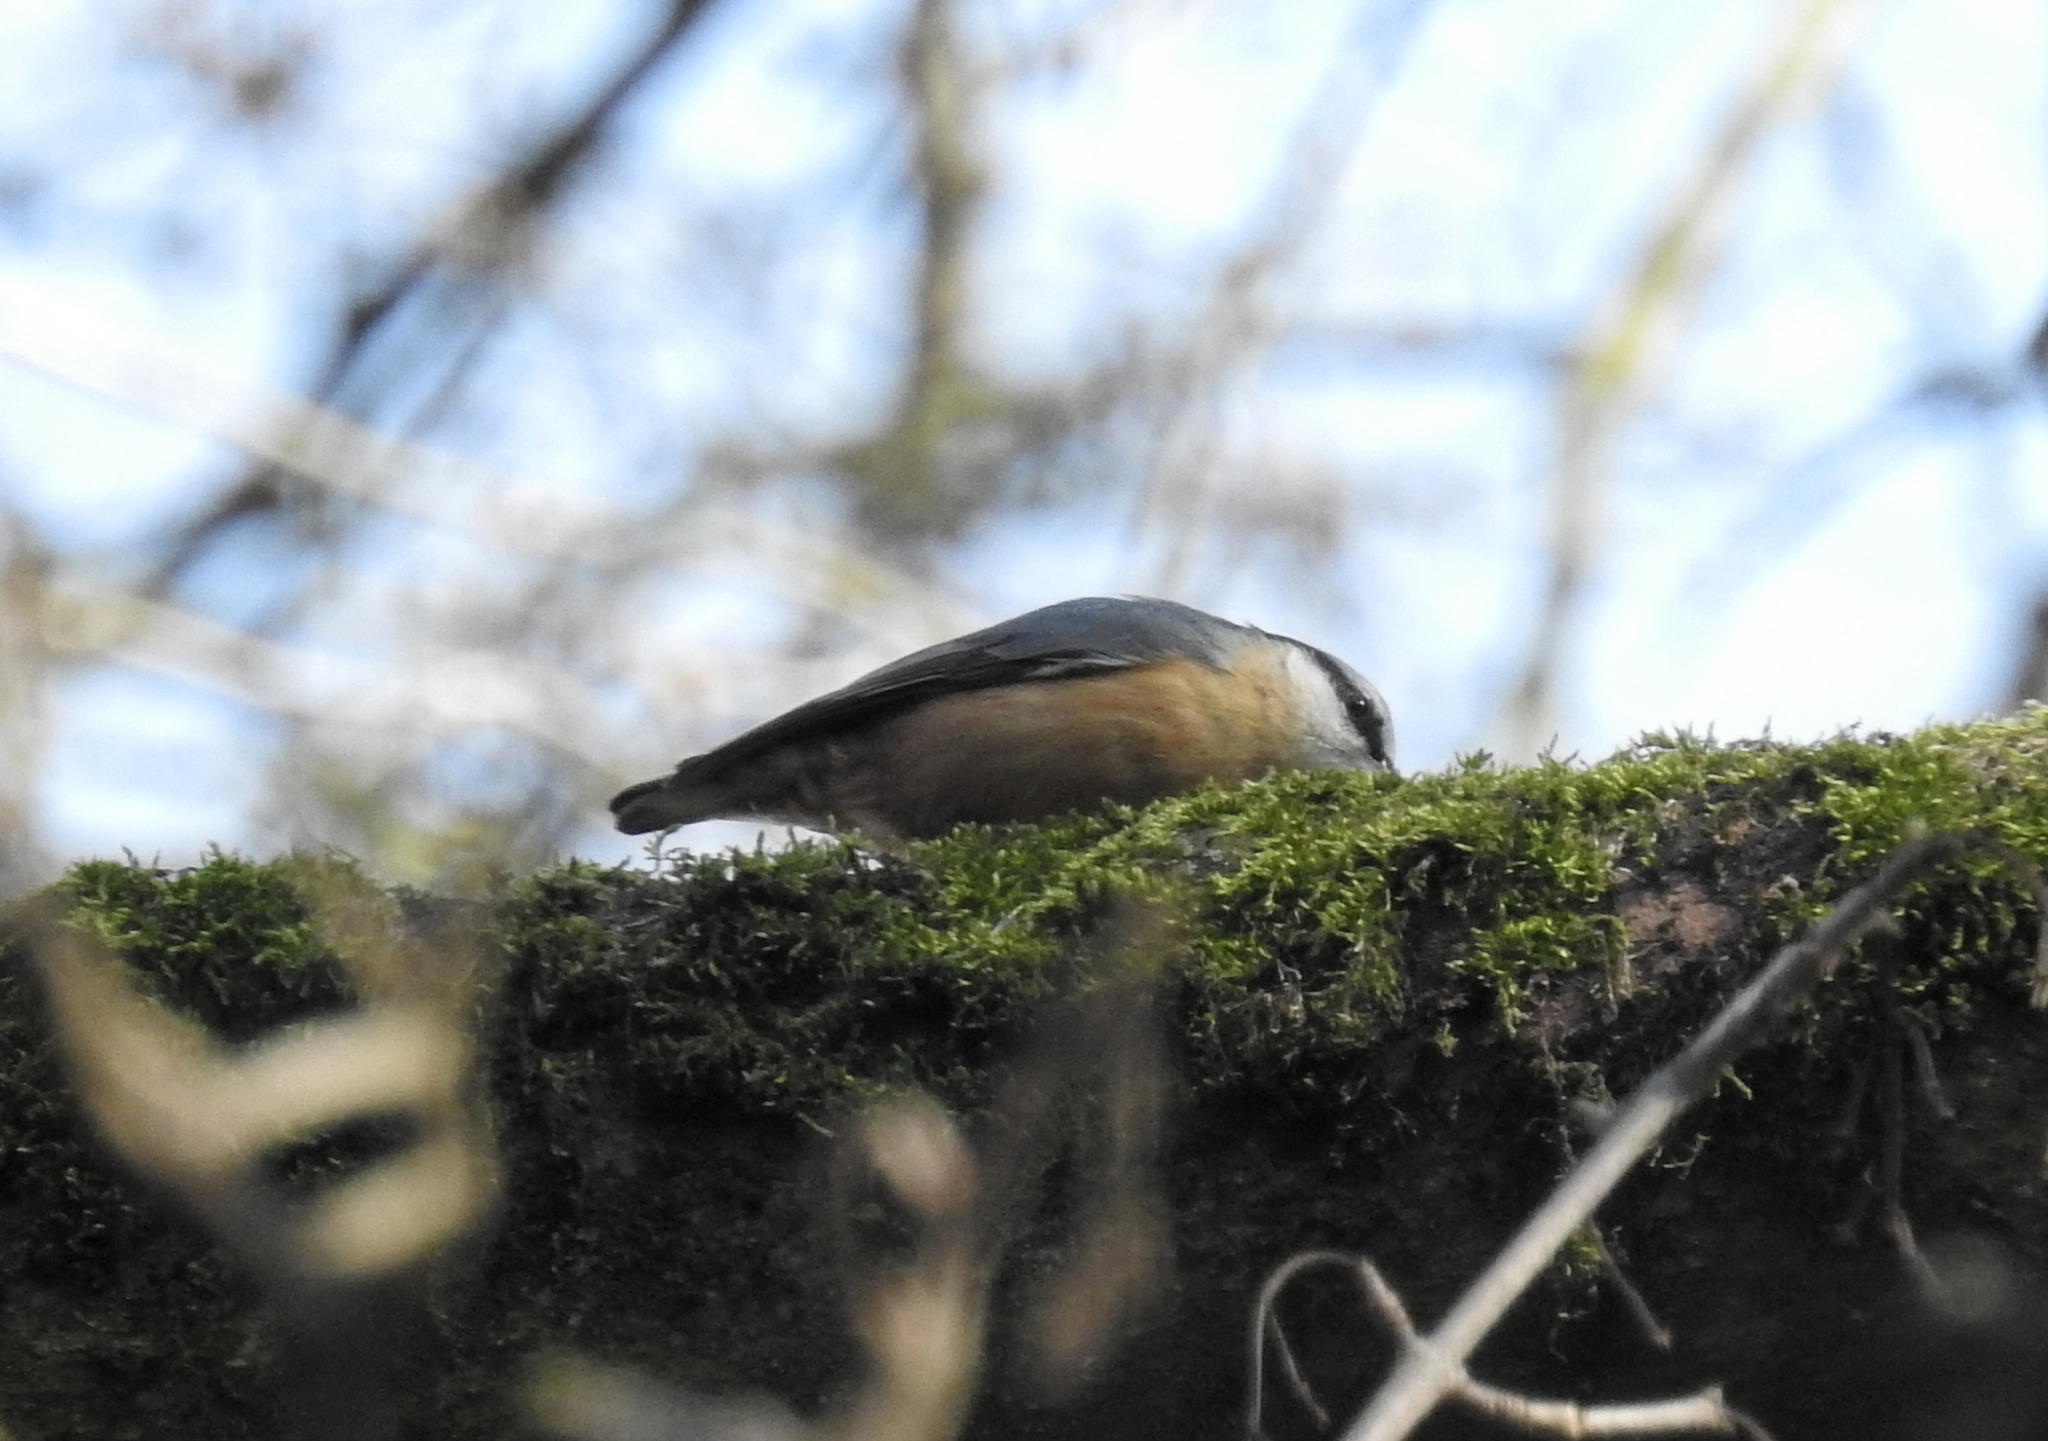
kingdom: Animalia
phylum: Chordata
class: Aves
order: Passeriformes
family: Sittidae
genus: Sitta
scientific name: Sitta europaea
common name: Eurasian nuthatch
